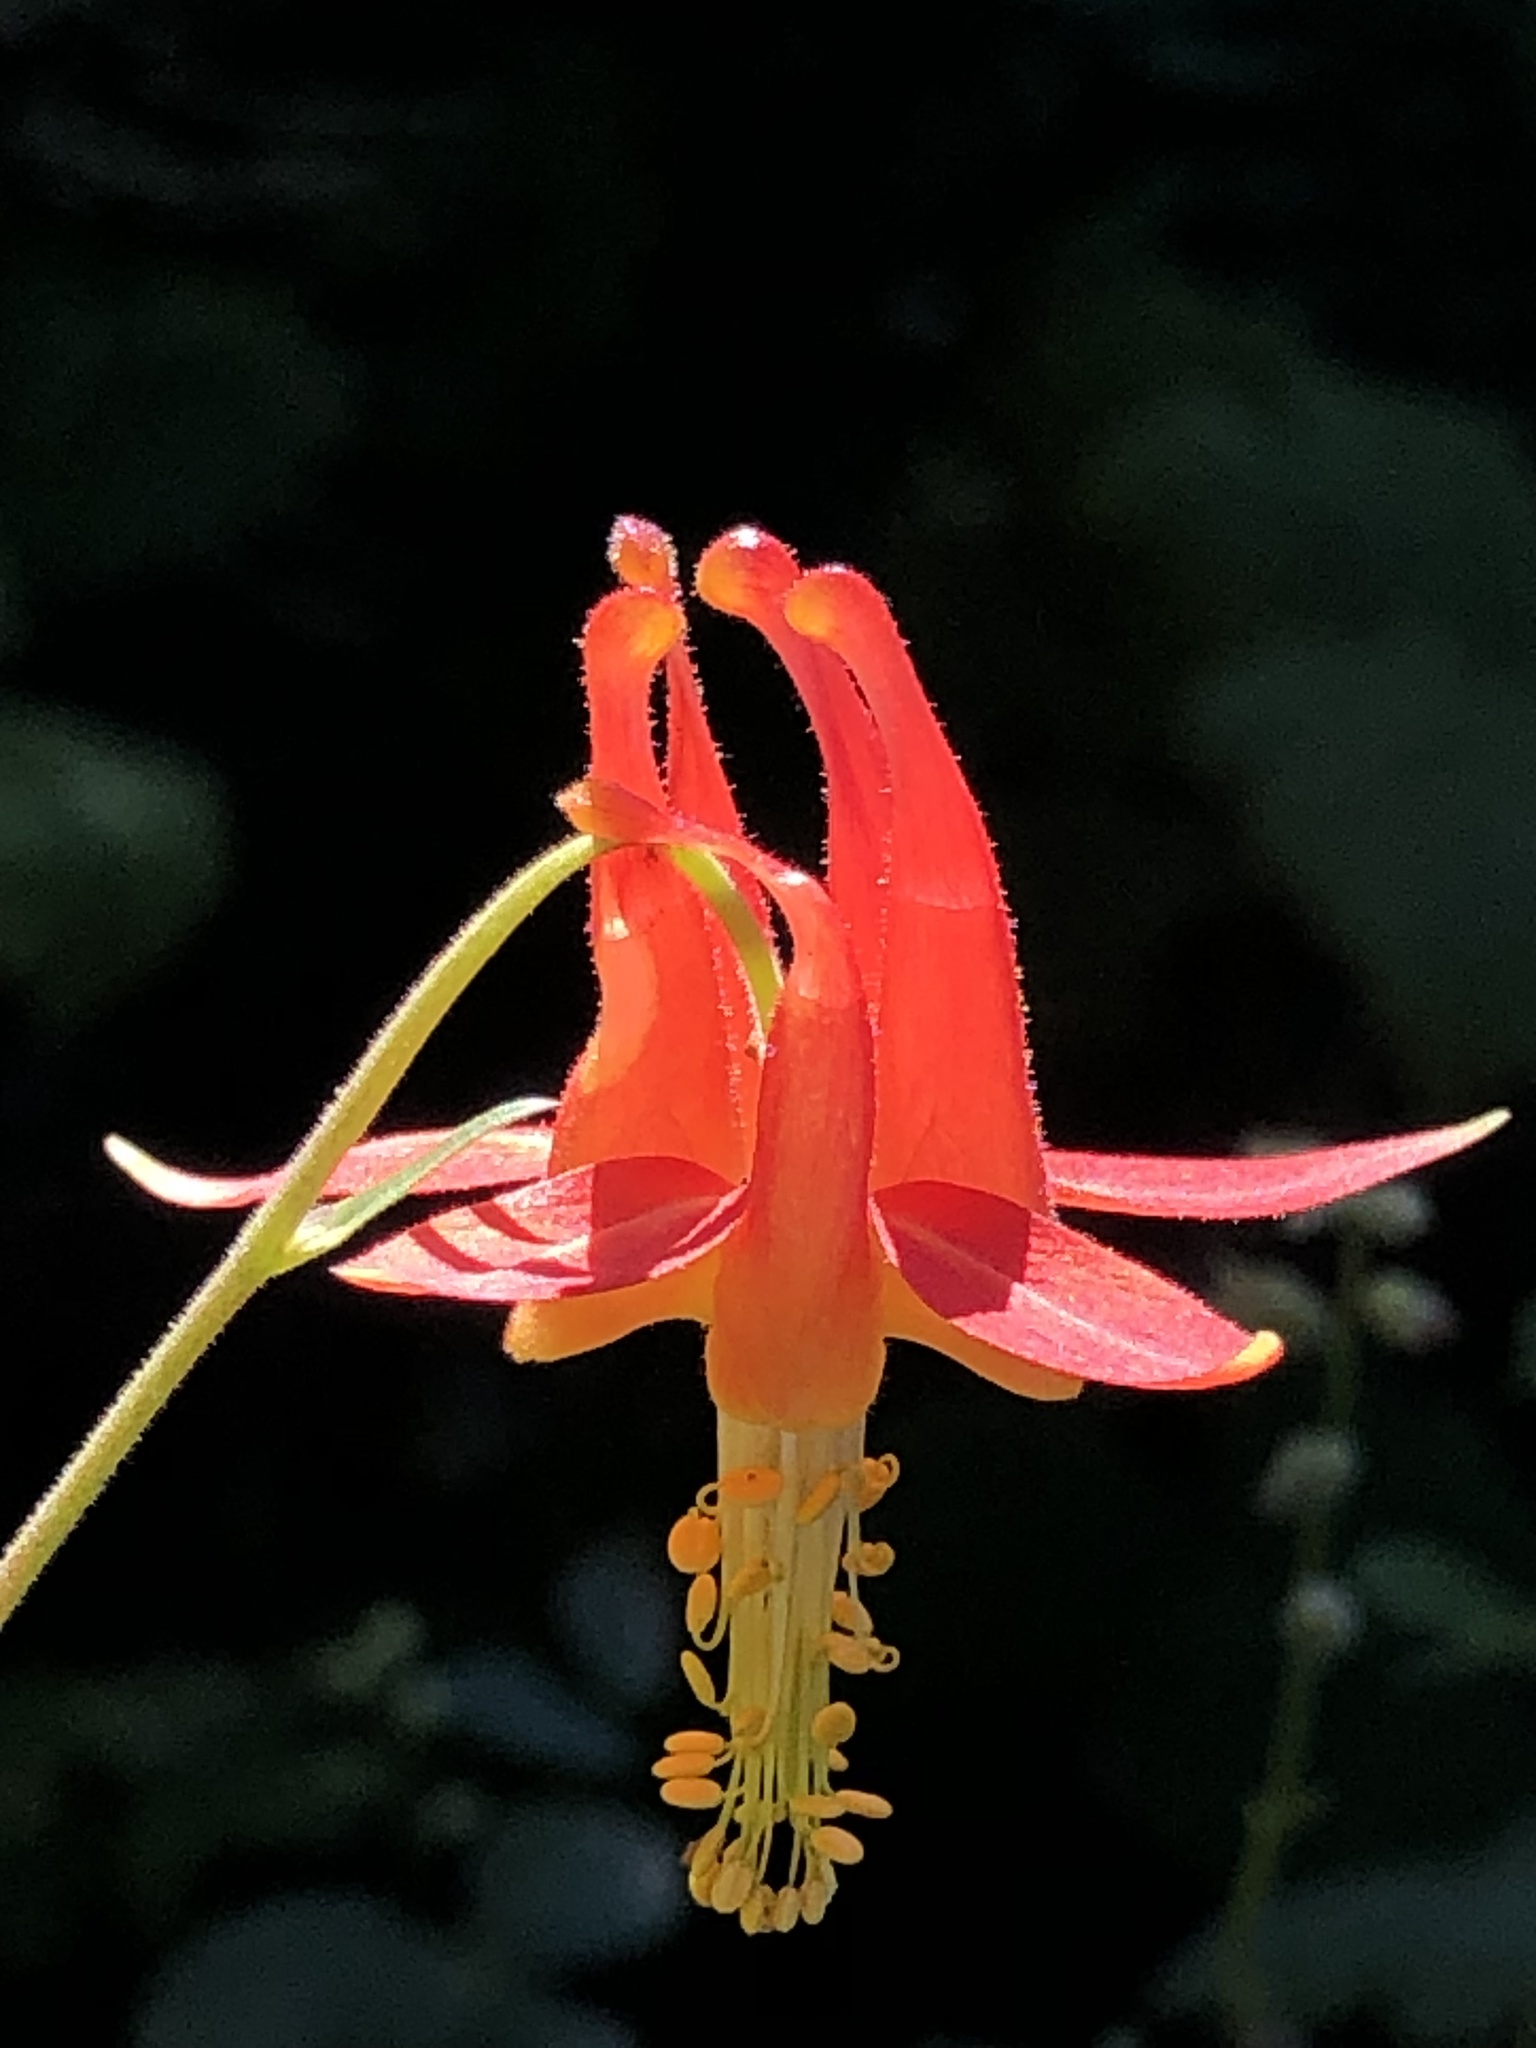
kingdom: Plantae
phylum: Tracheophyta
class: Magnoliopsida
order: Ranunculales
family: Ranunculaceae
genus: Aquilegia
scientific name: Aquilegia formosa
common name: Sitka columbine
